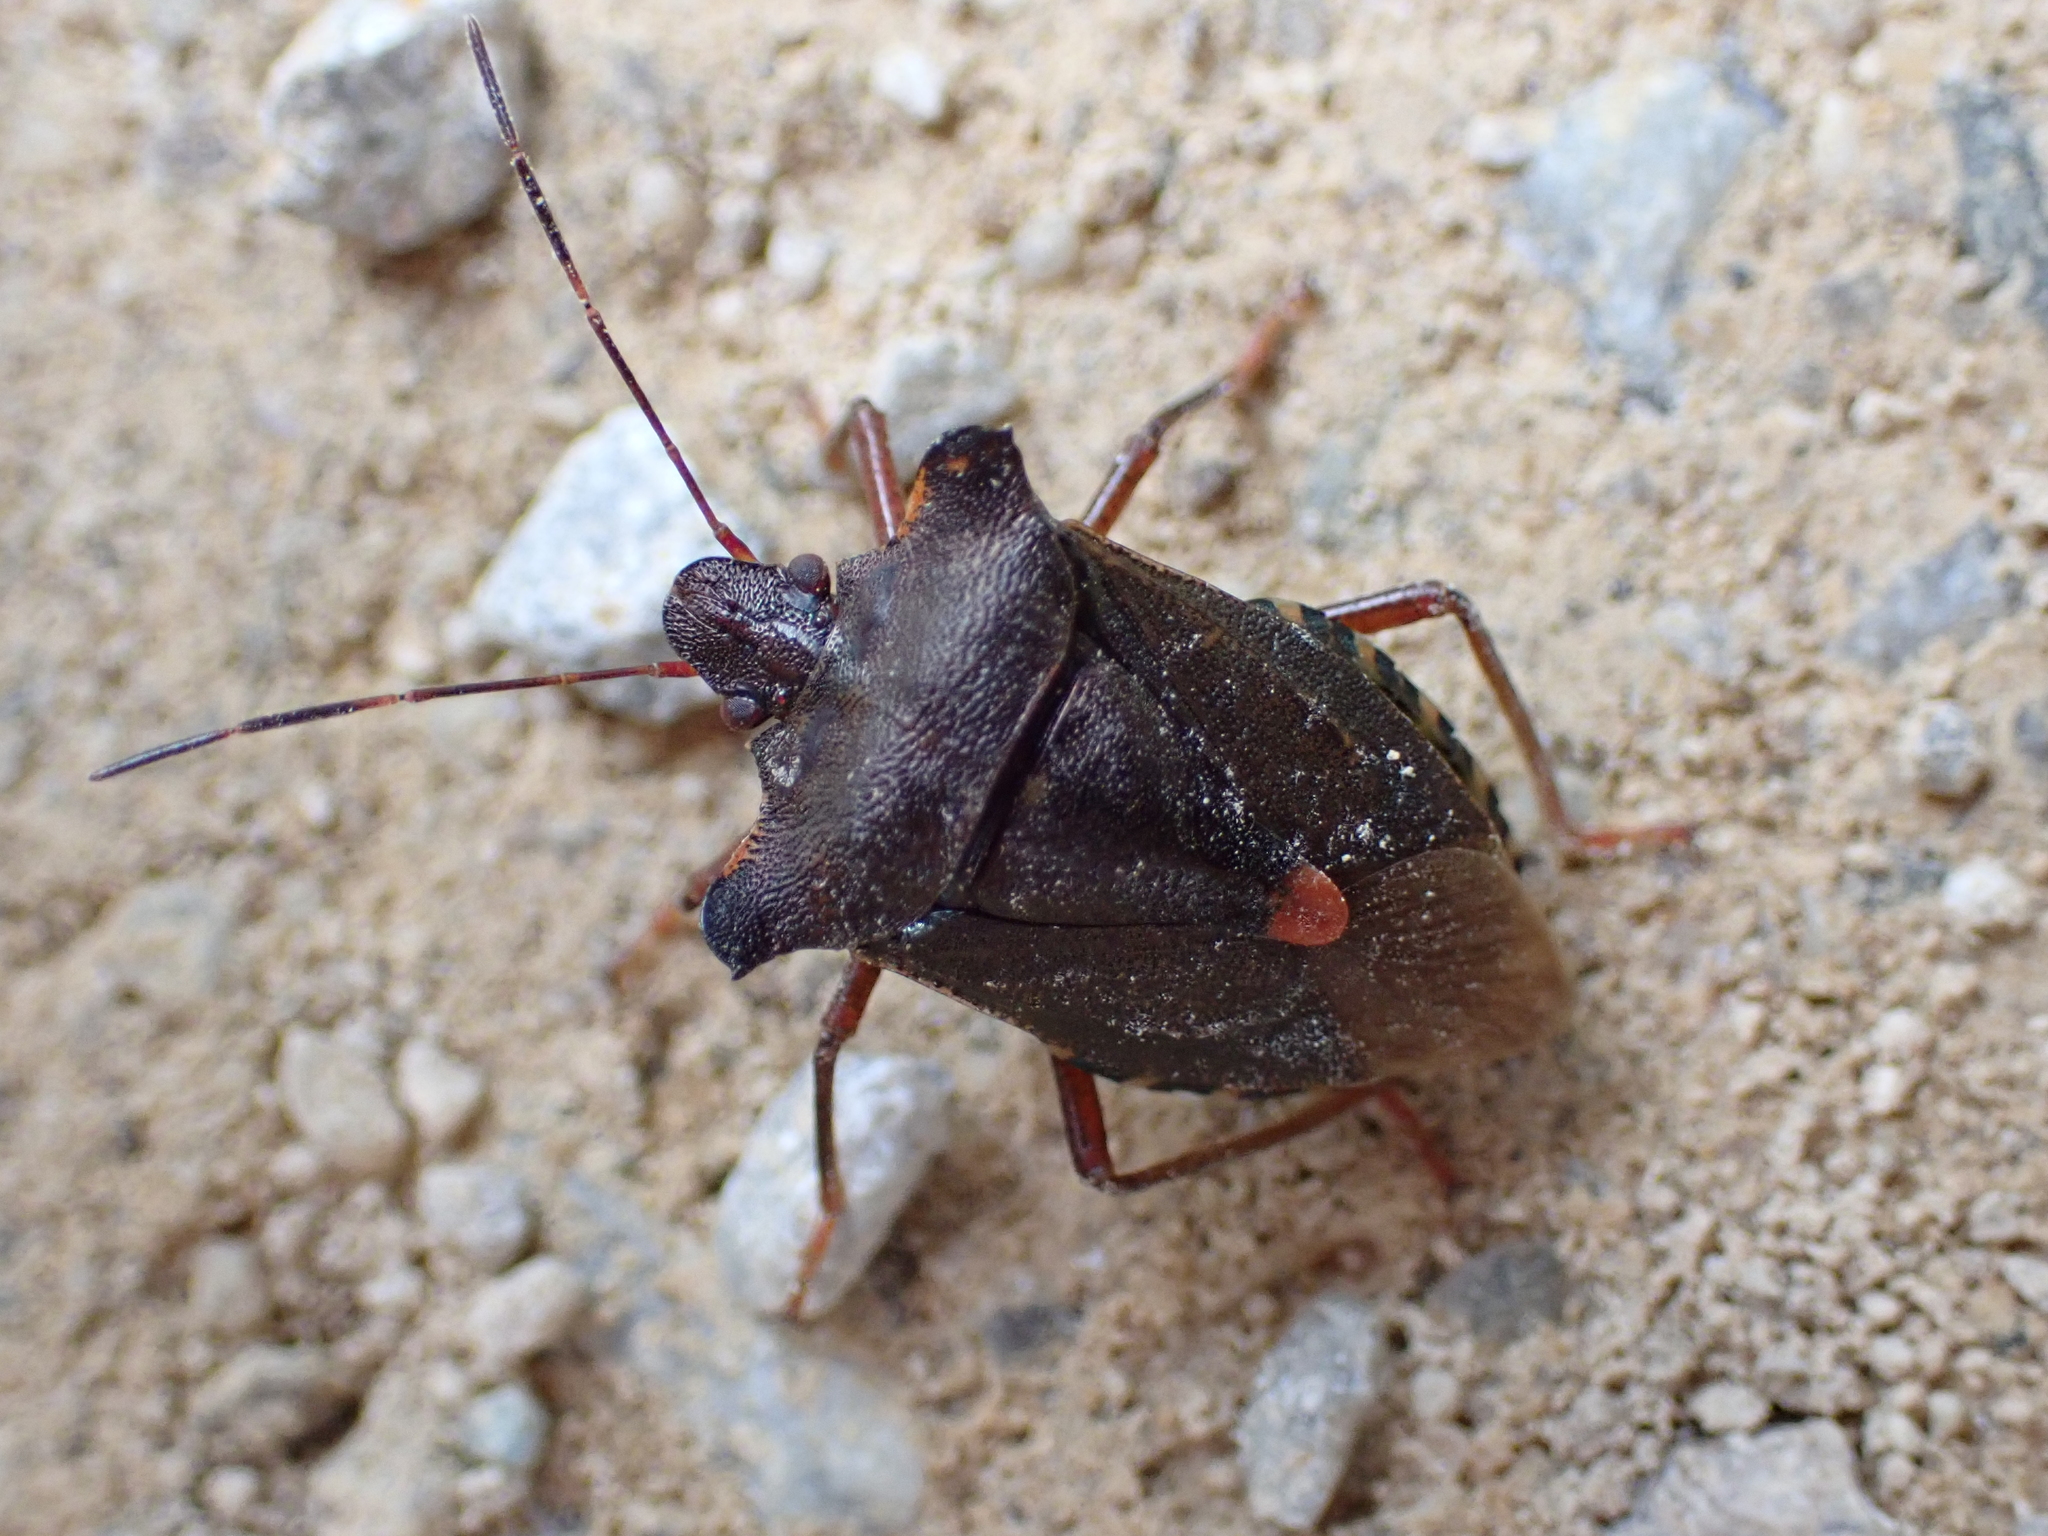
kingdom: Animalia
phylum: Arthropoda
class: Insecta
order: Hemiptera
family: Pentatomidae
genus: Pentatoma
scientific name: Pentatoma rufipes
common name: Forest bug
